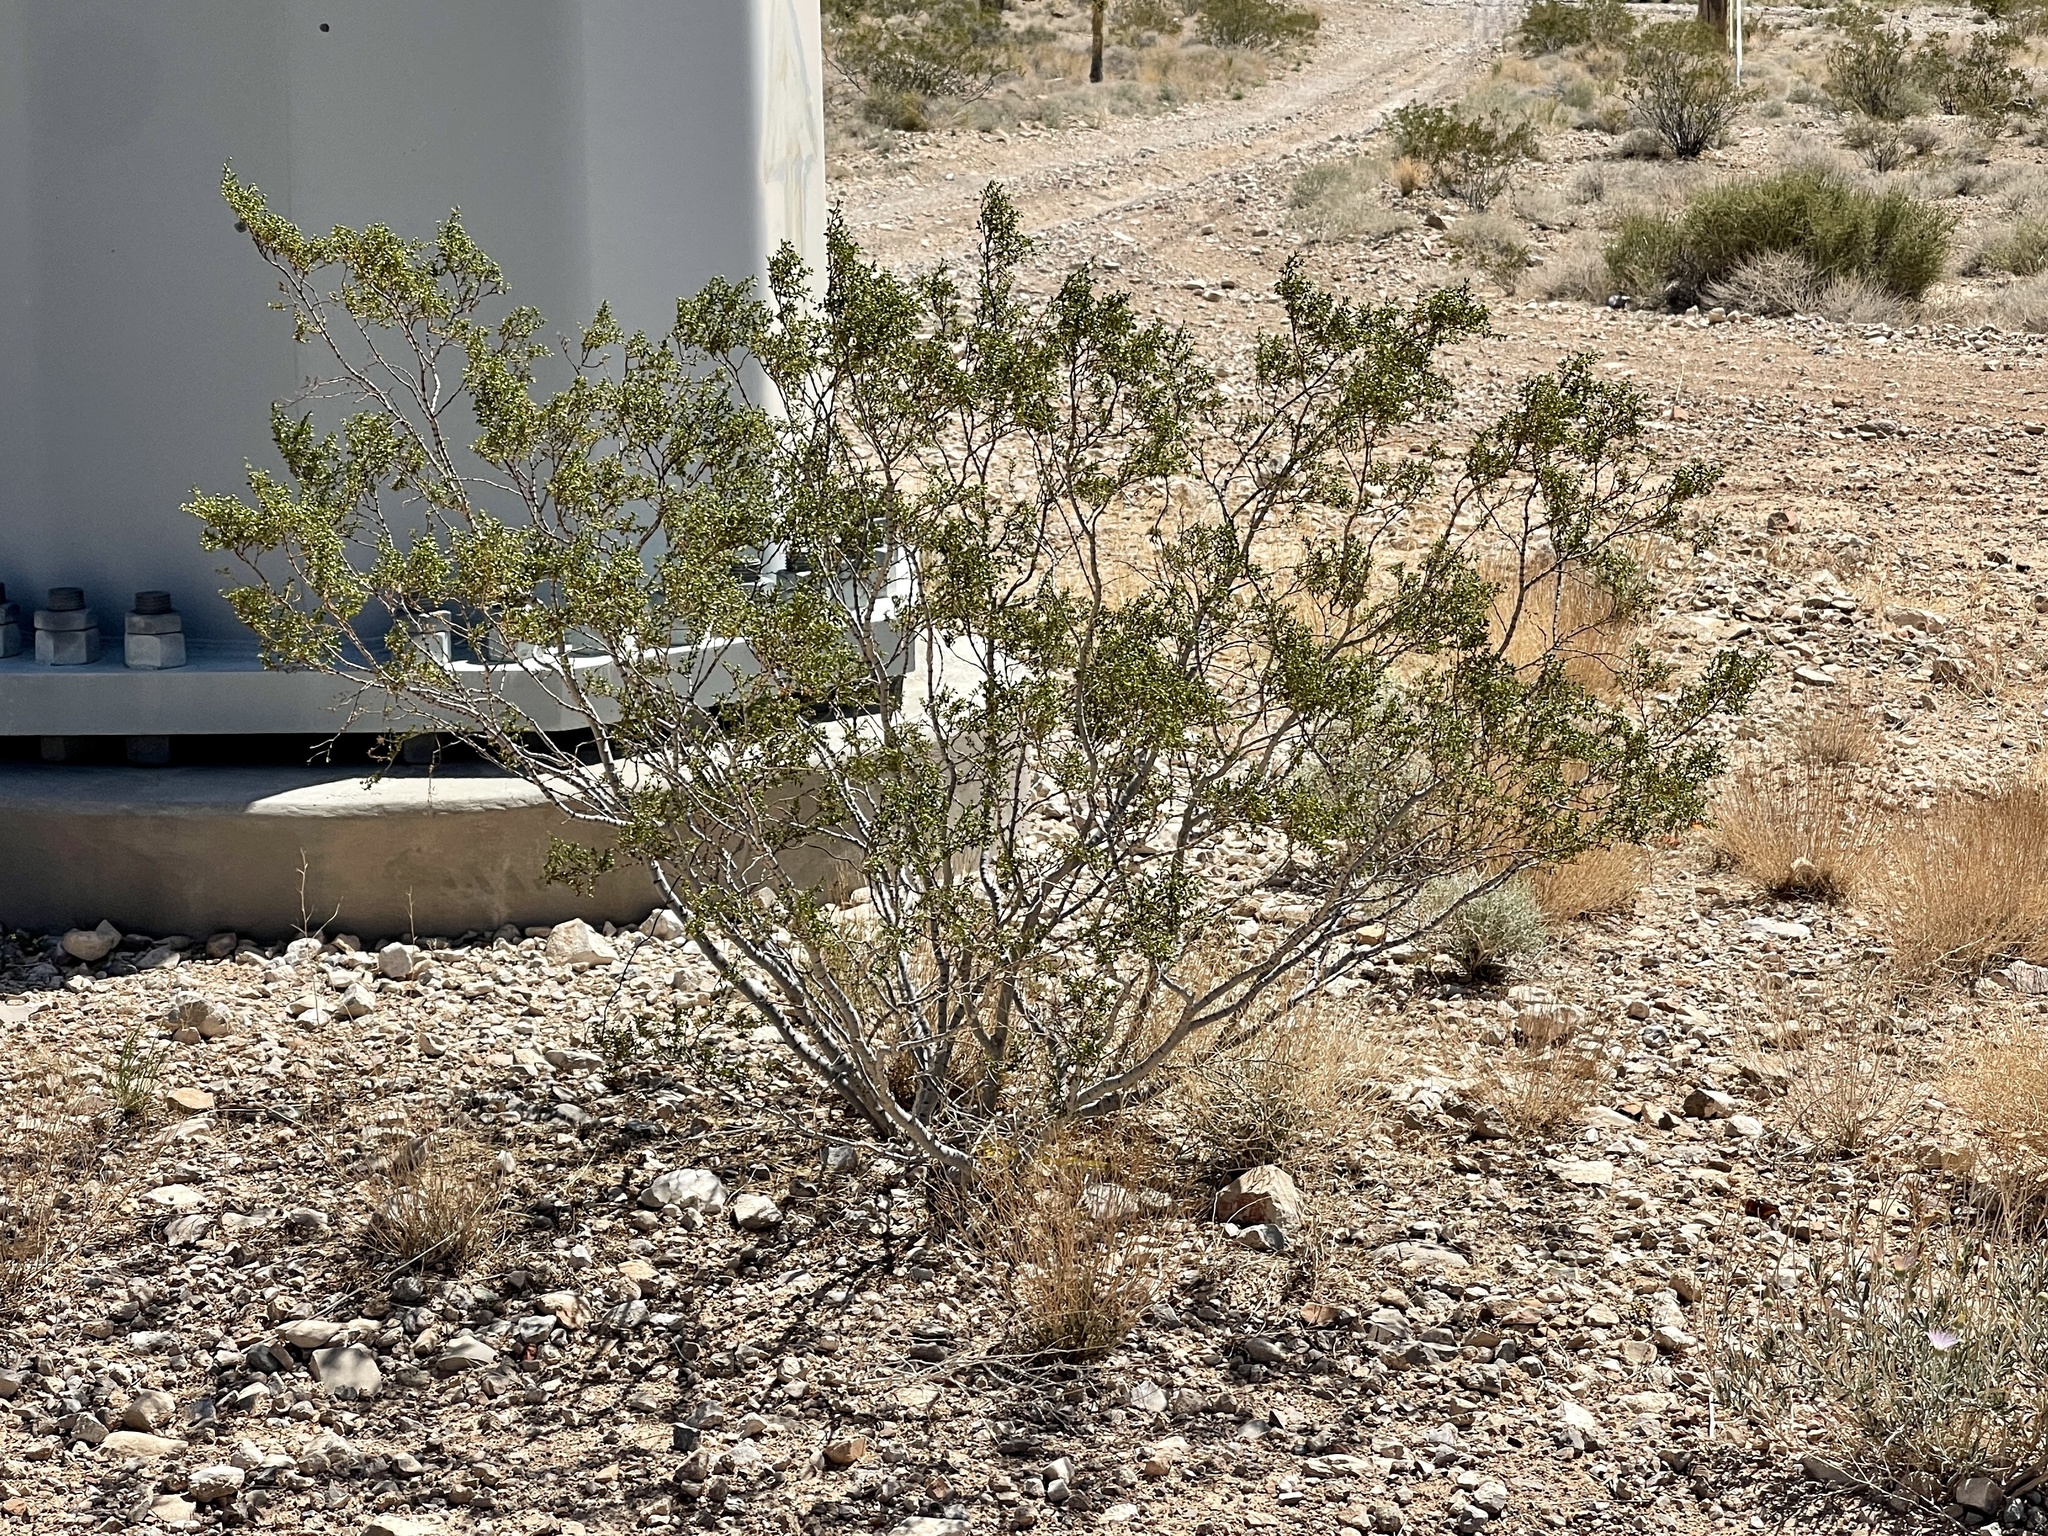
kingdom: Plantae
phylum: Tracheophyta
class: Magnoliopsida
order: Zygophyllales
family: Zygophyllaceae
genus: Larrea
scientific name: Larrea tridentata
